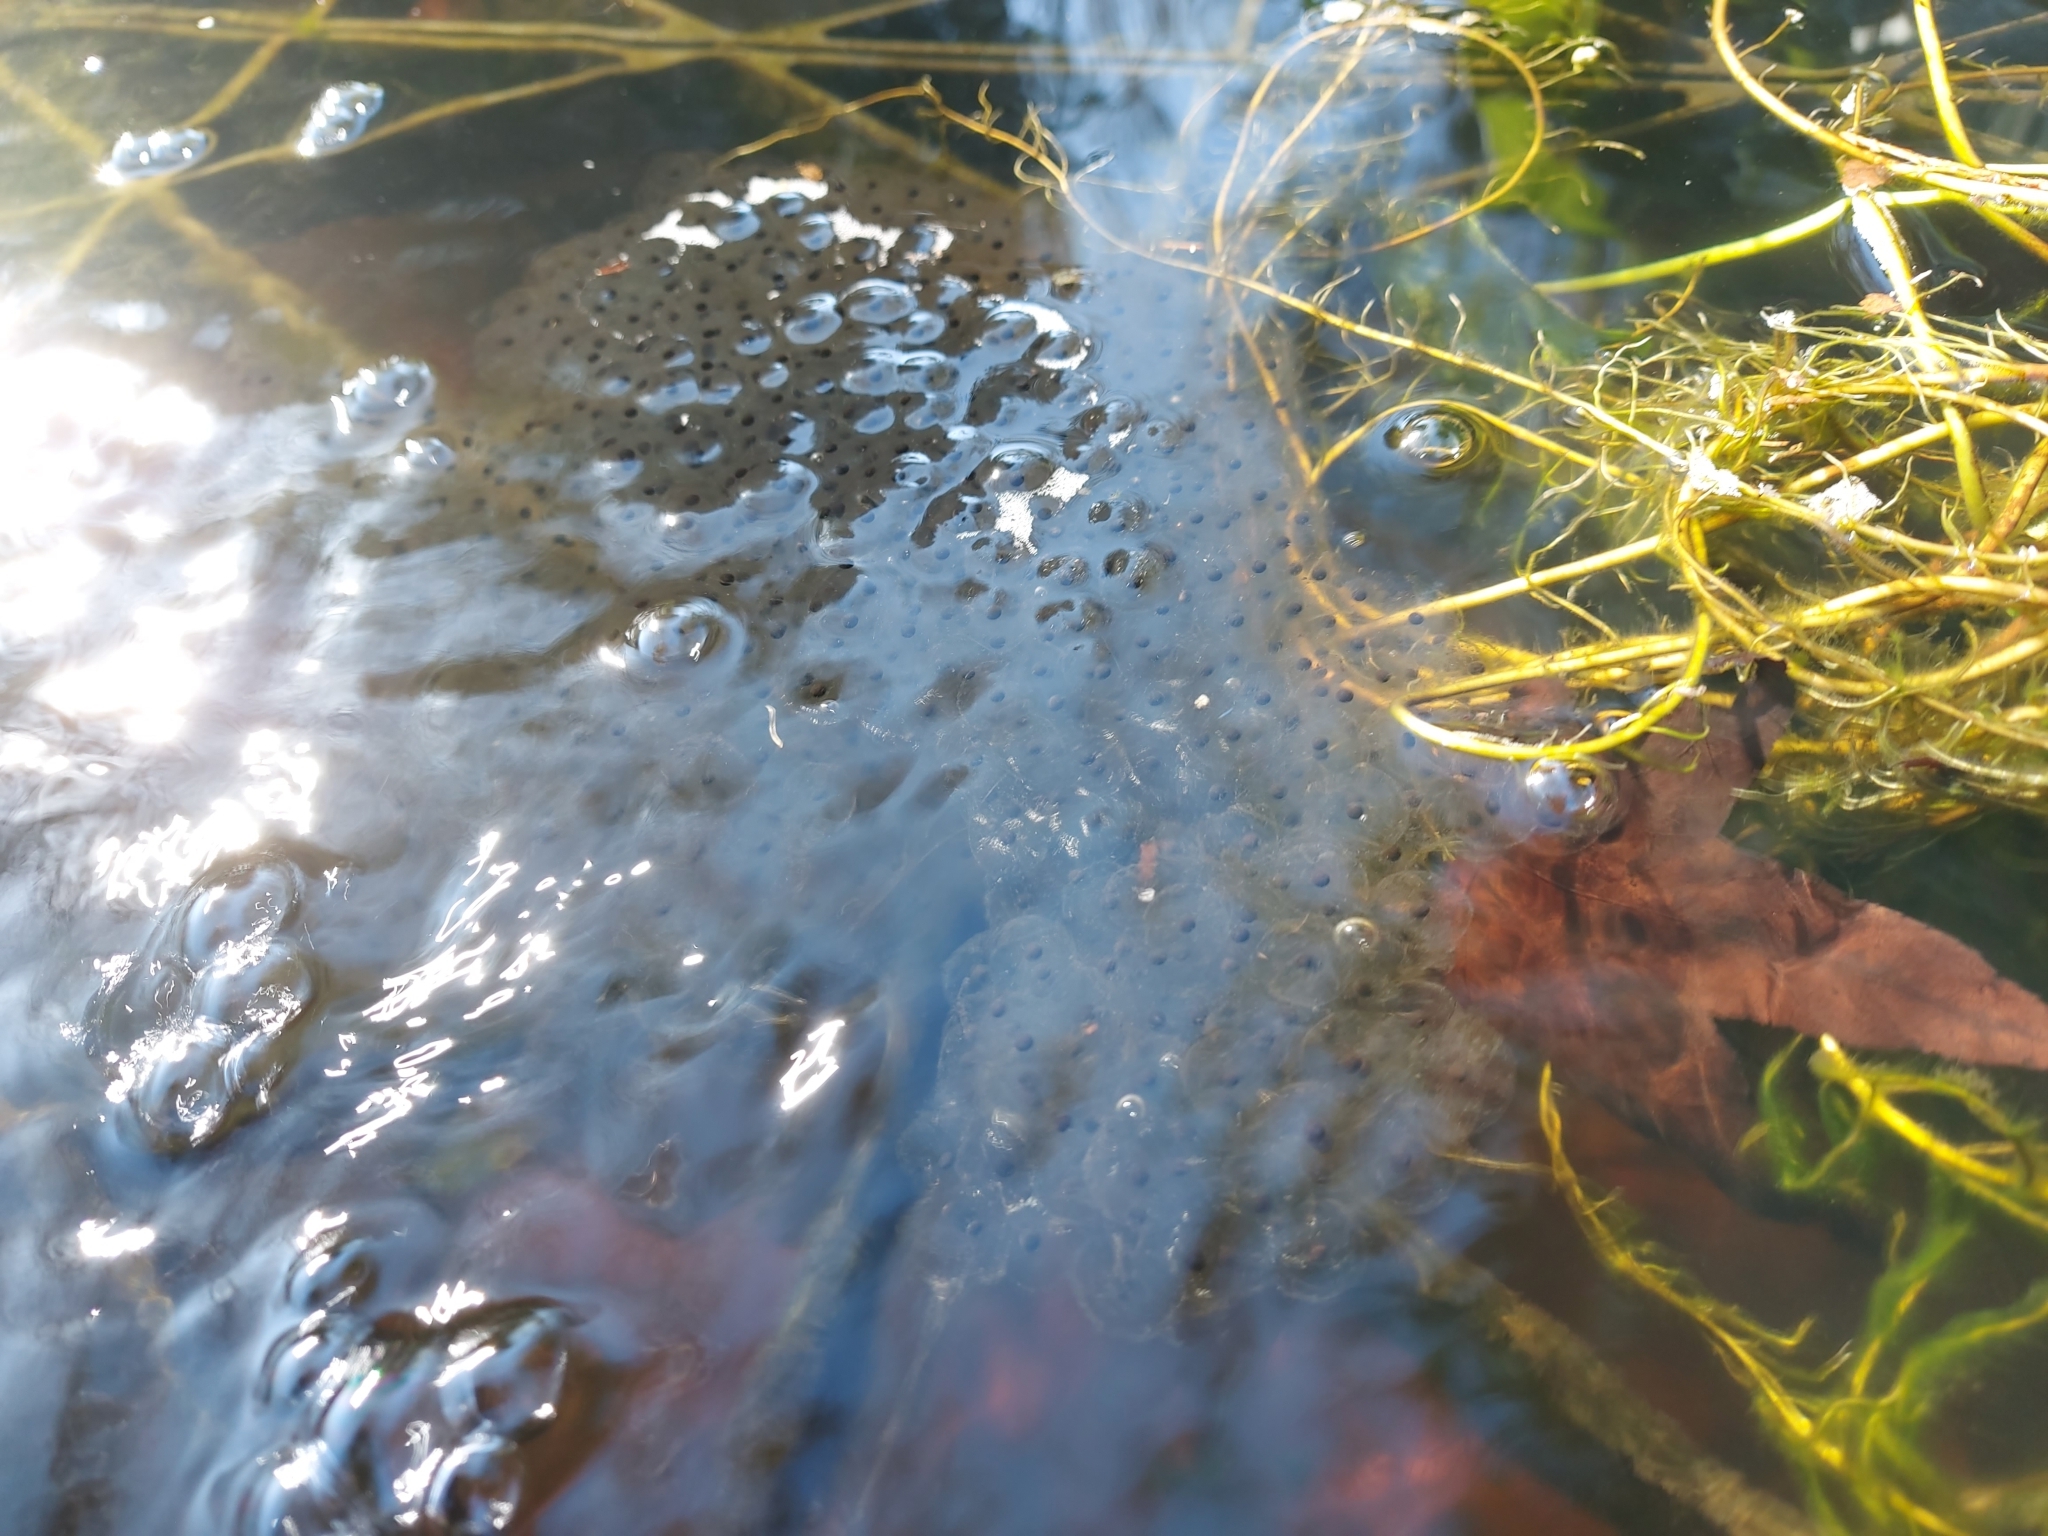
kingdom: Animalia
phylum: Chordata
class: Amphibia
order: Anura
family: Ranidae
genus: Rana
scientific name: Rana temporaria
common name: Common frog
